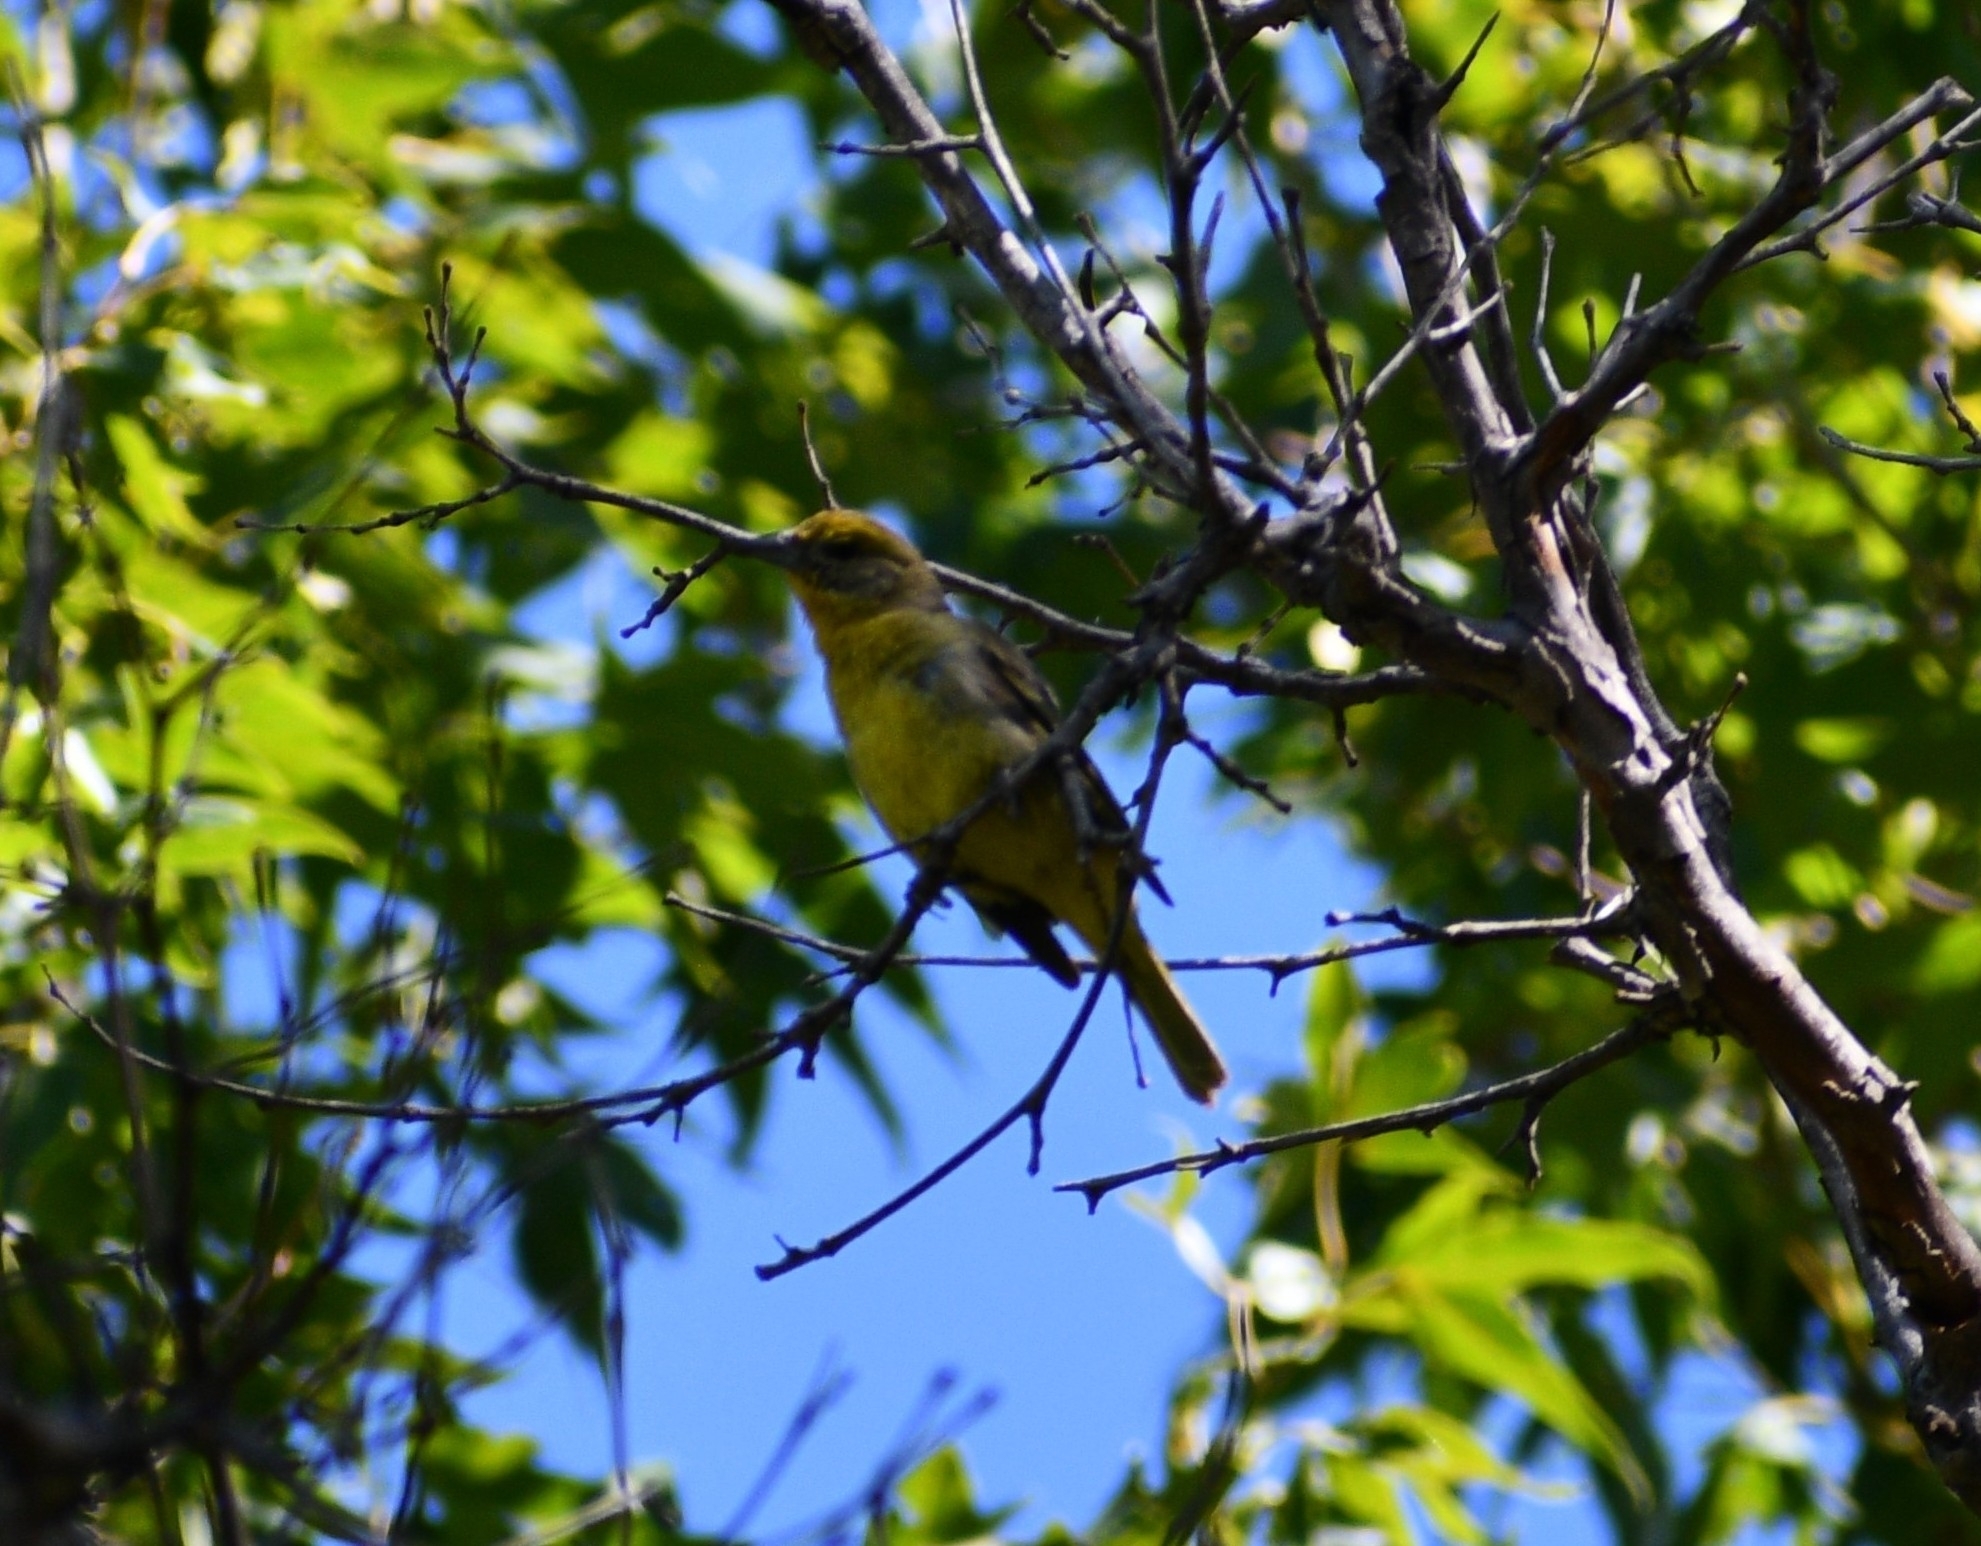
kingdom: Animalia
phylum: Chordata
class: Aves
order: Passeriformes
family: Cardinalidae
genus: Piranga
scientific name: Piranga flava
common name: Red tanager
